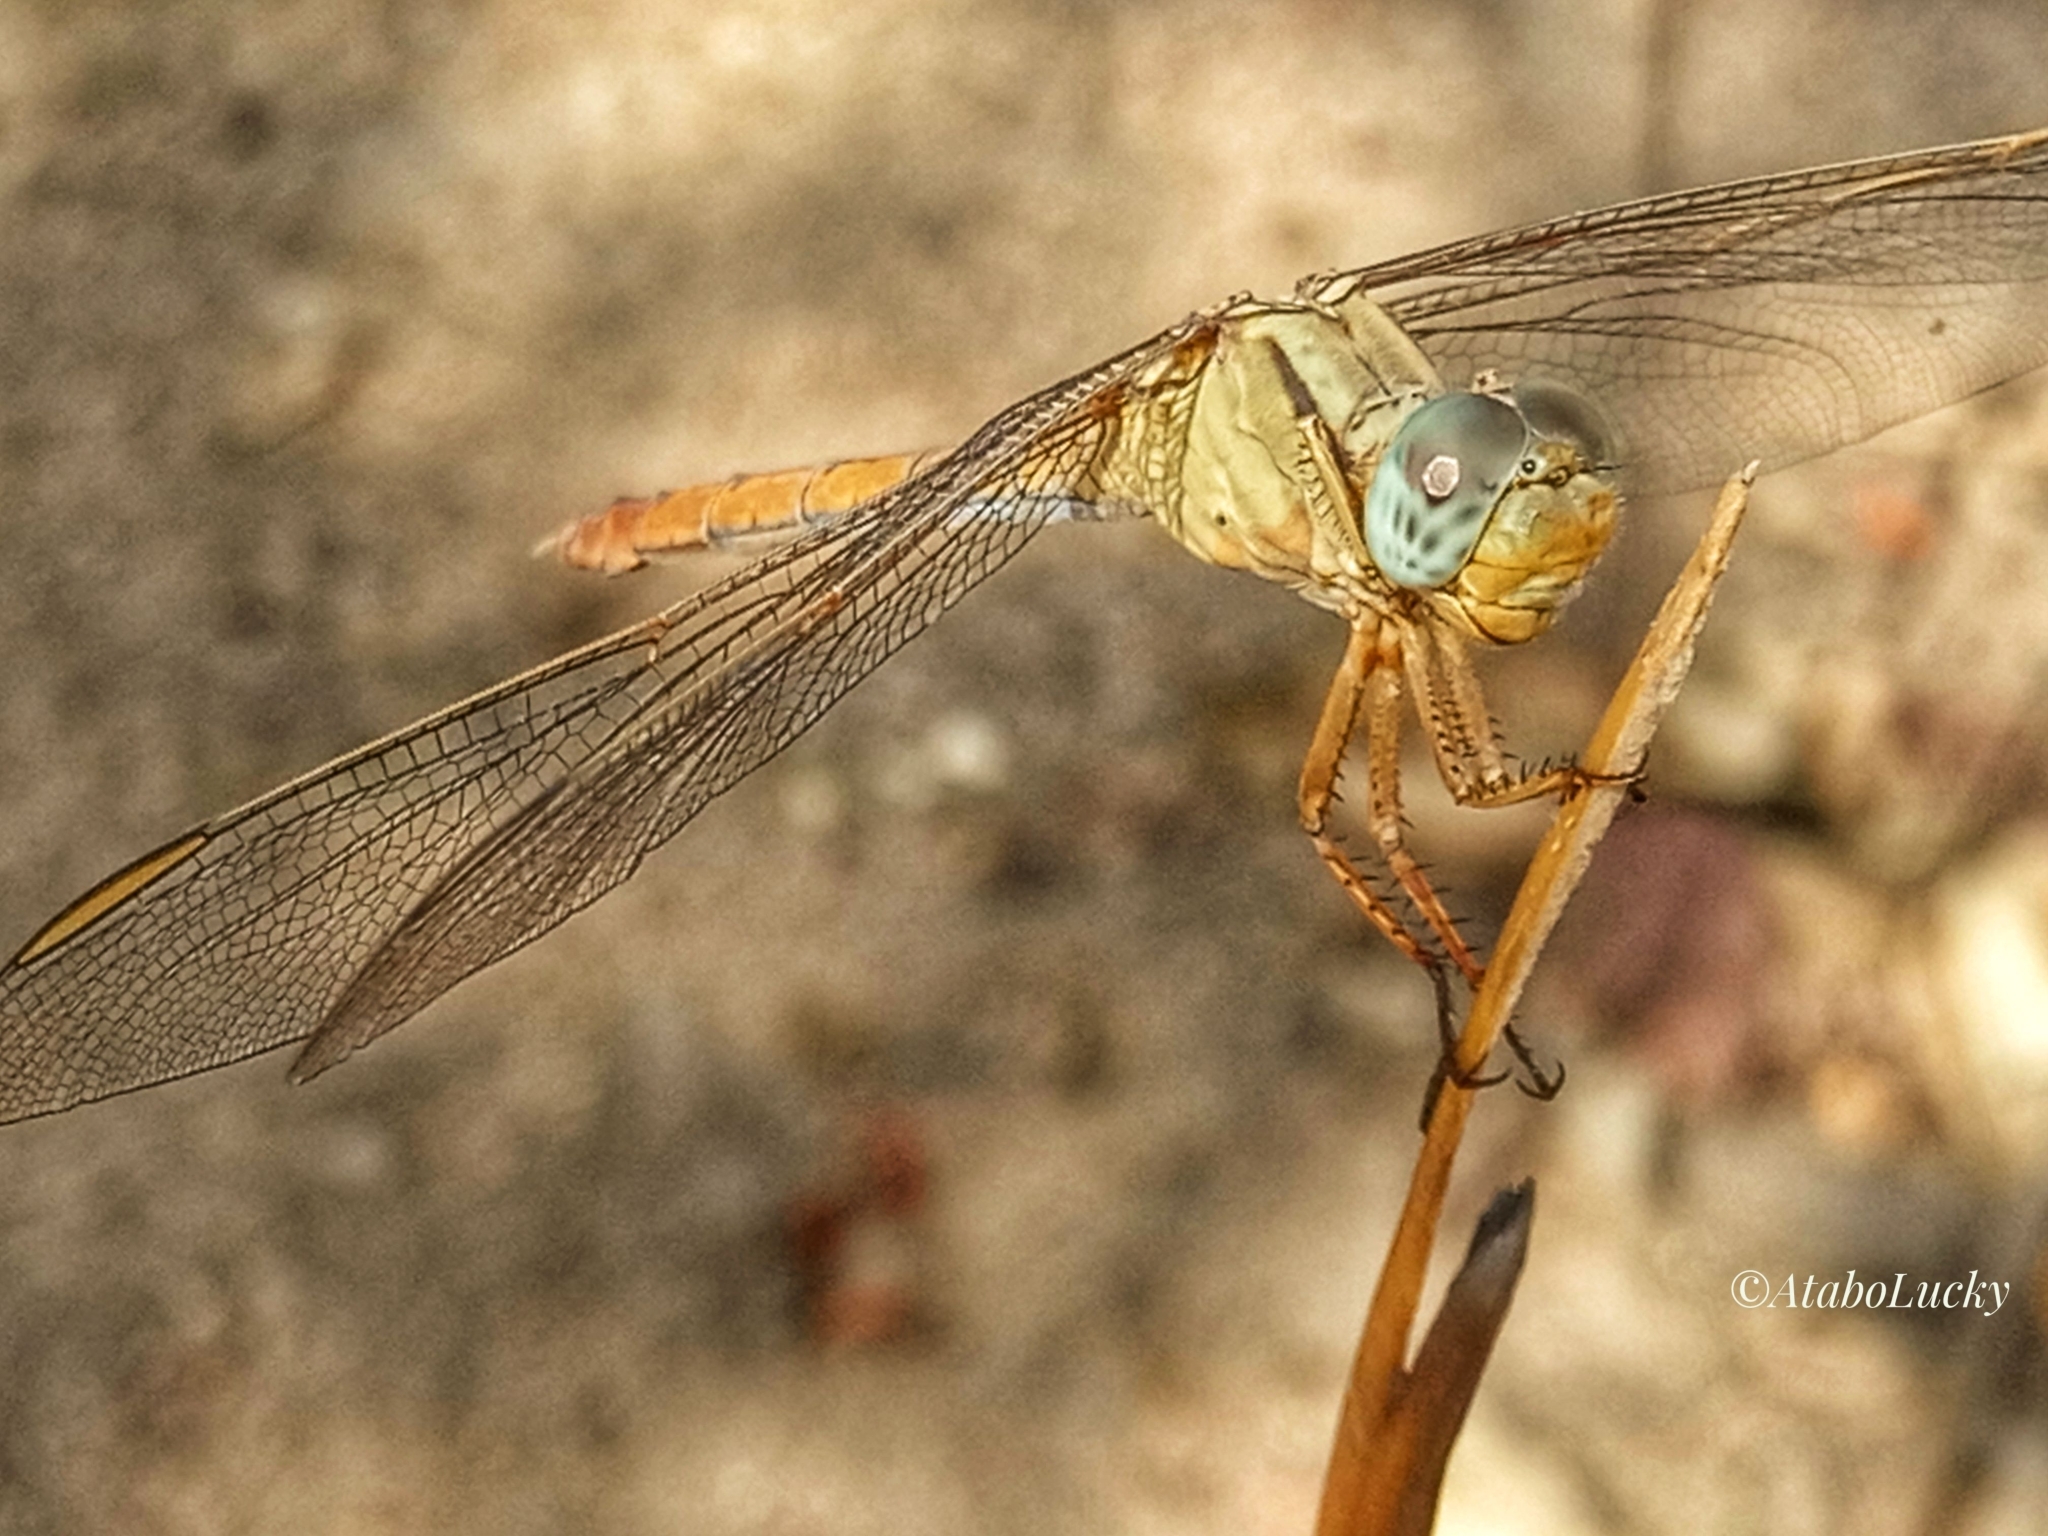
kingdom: Animalia
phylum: Arthropoda
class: Insecta
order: Odonata
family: Libellulidae
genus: Crocothemis
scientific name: Crocothemis erythraea
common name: Scarlet dragonfly
